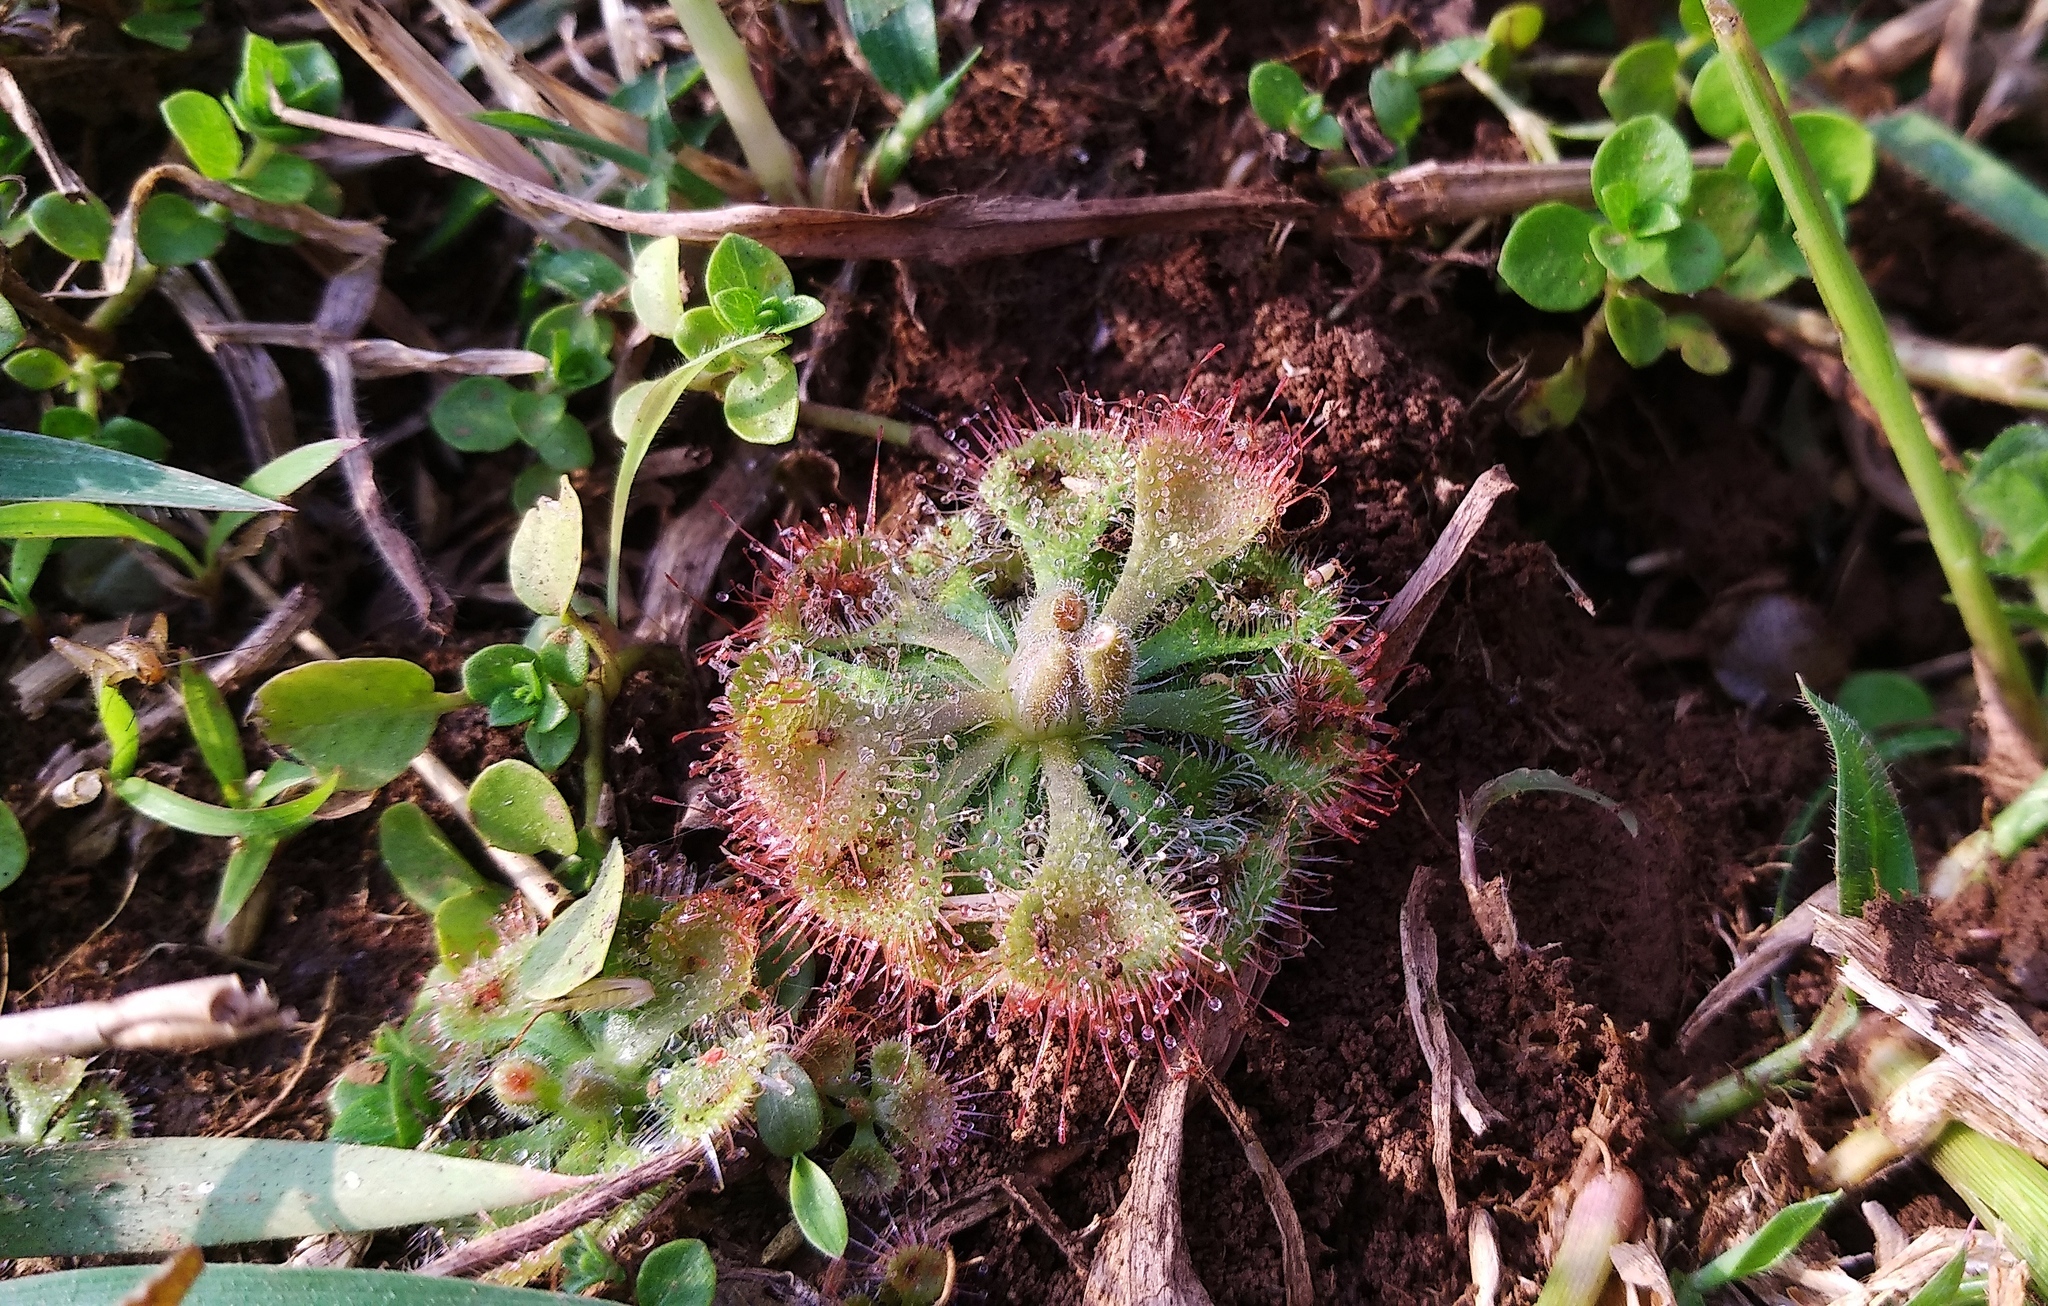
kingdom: Plantae
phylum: Tracheophyta
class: Magnoliopsida
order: Caryophyllales
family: Droseraceae
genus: Drosera
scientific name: Drosera spatulata
